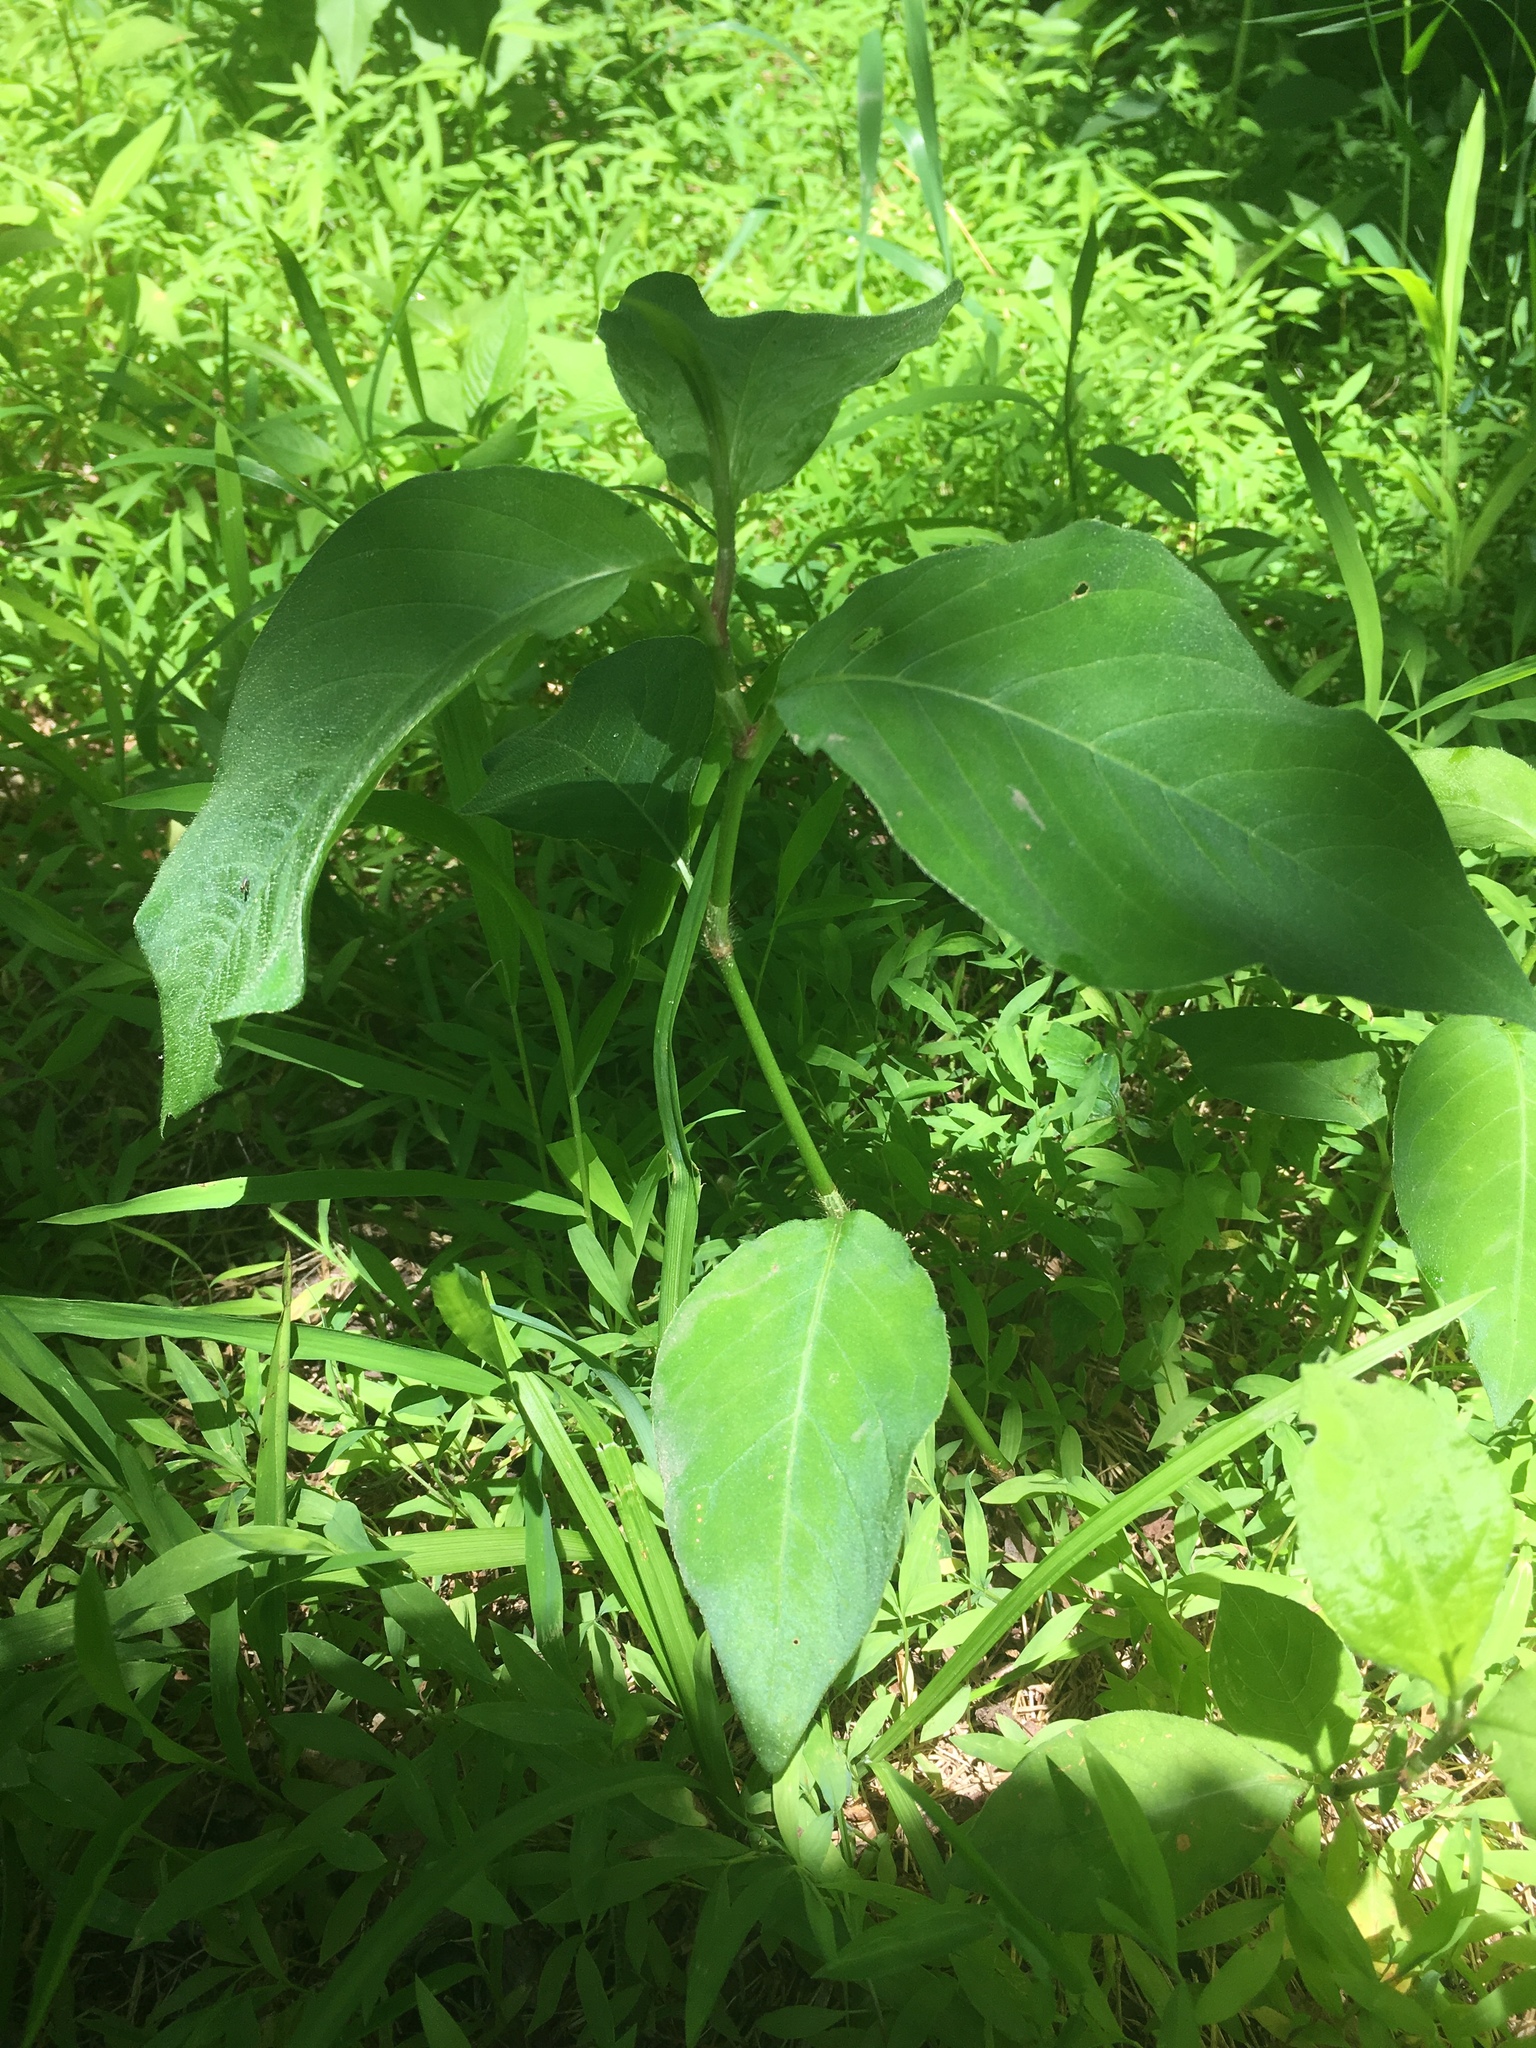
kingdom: Plantae
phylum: Tracheophyta
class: Magnoliopsida
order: Caryophyllales
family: Polygonaceae
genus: Persicaria
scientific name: Persicaria virginiana
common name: Jumpseed
